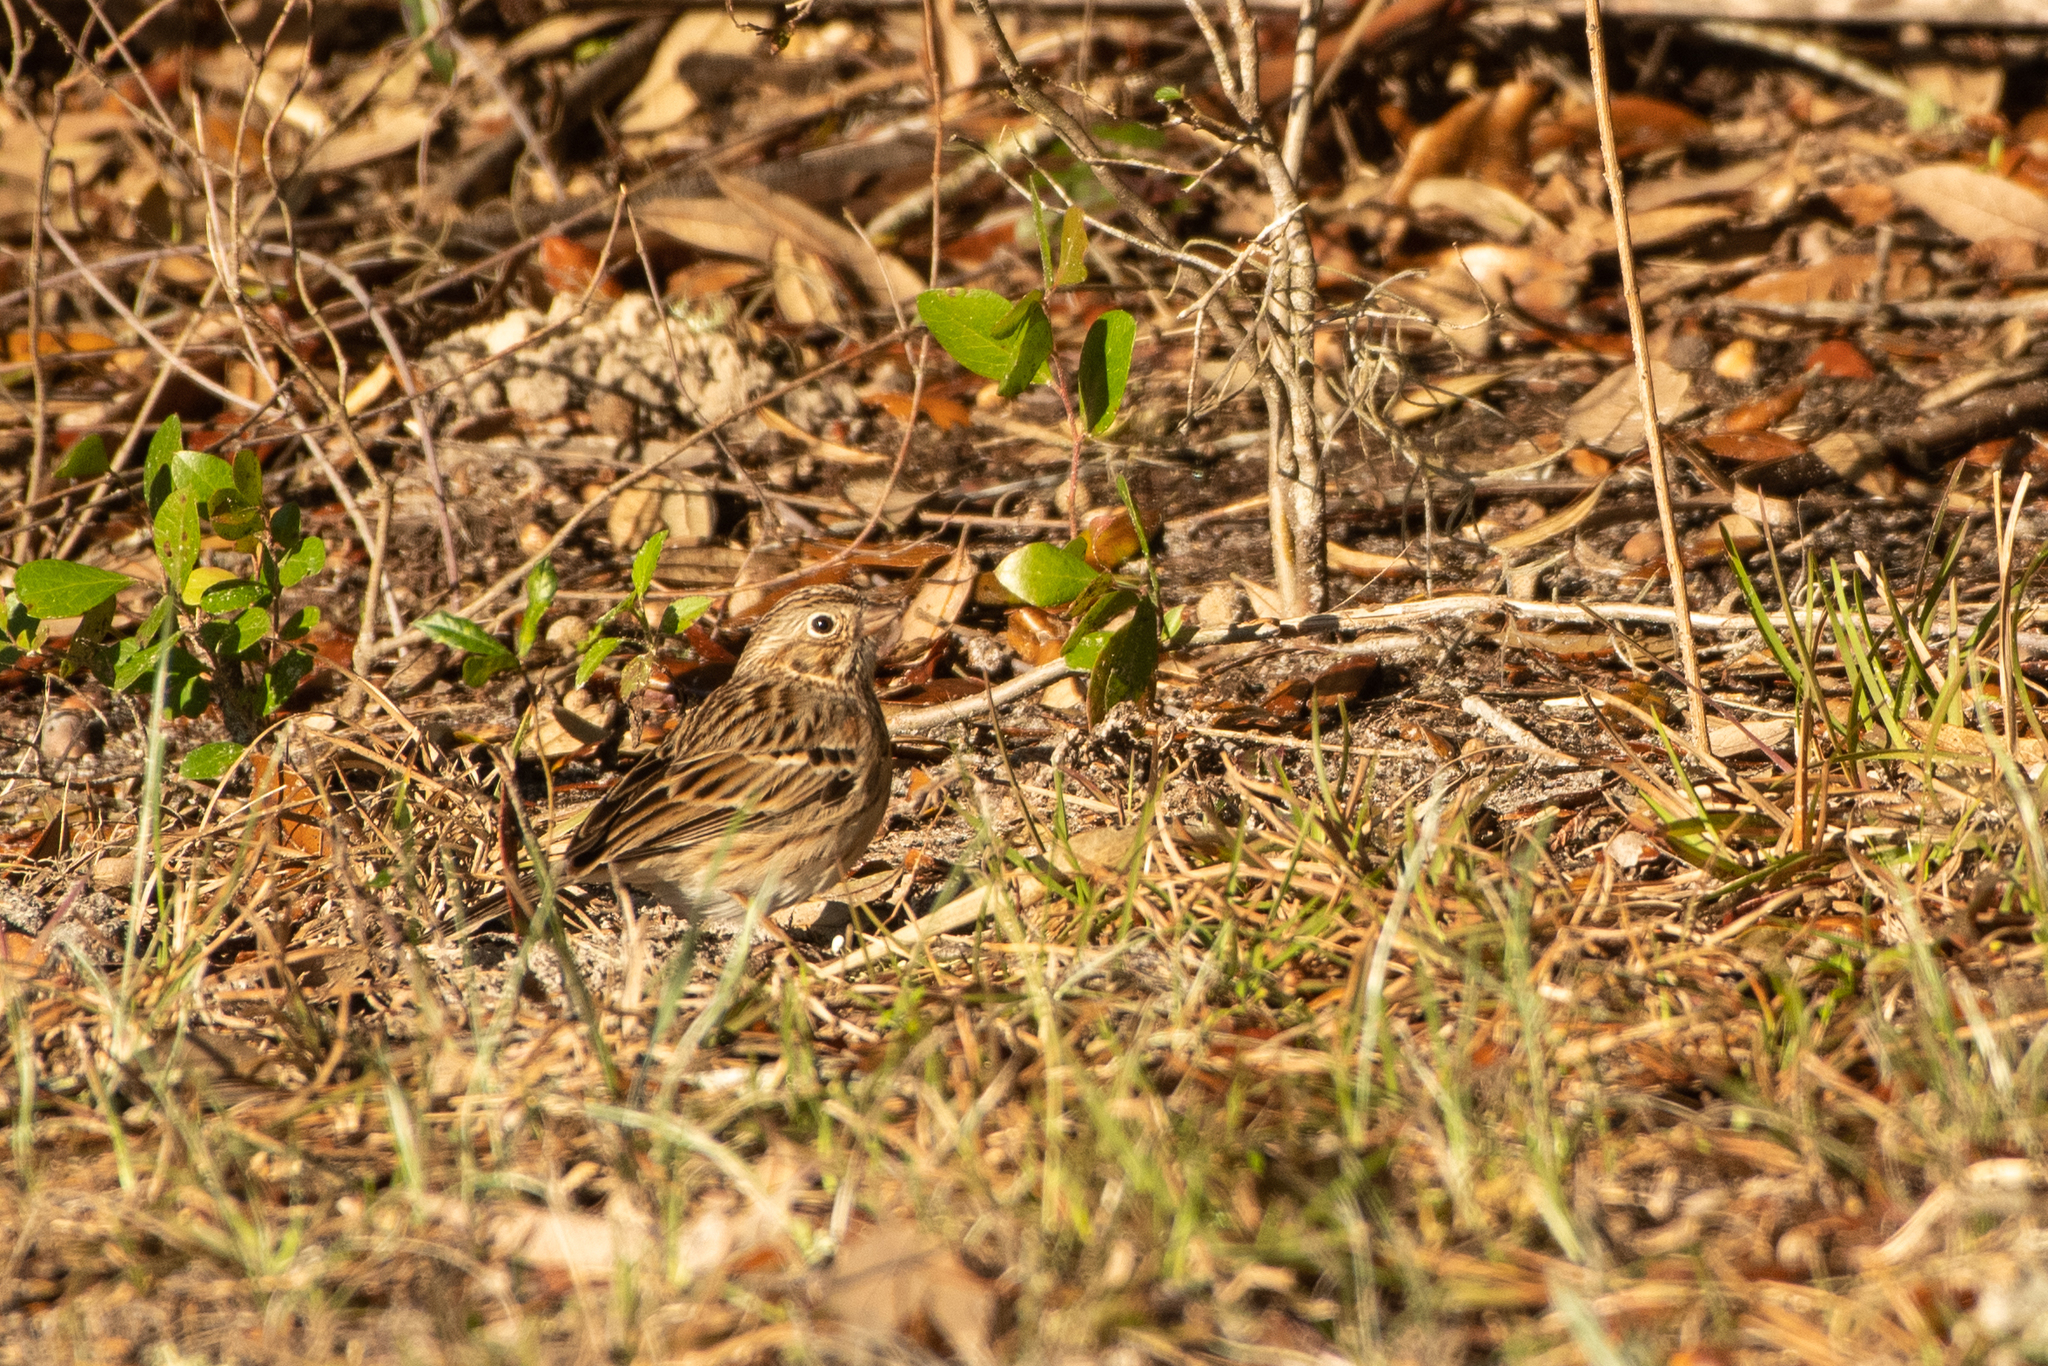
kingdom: Animalia
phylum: Chordata
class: Aves
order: Passeriformes
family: Passerellidae
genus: Pooecetes
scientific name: Pooecetes gramineus
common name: Vesper sparrow
